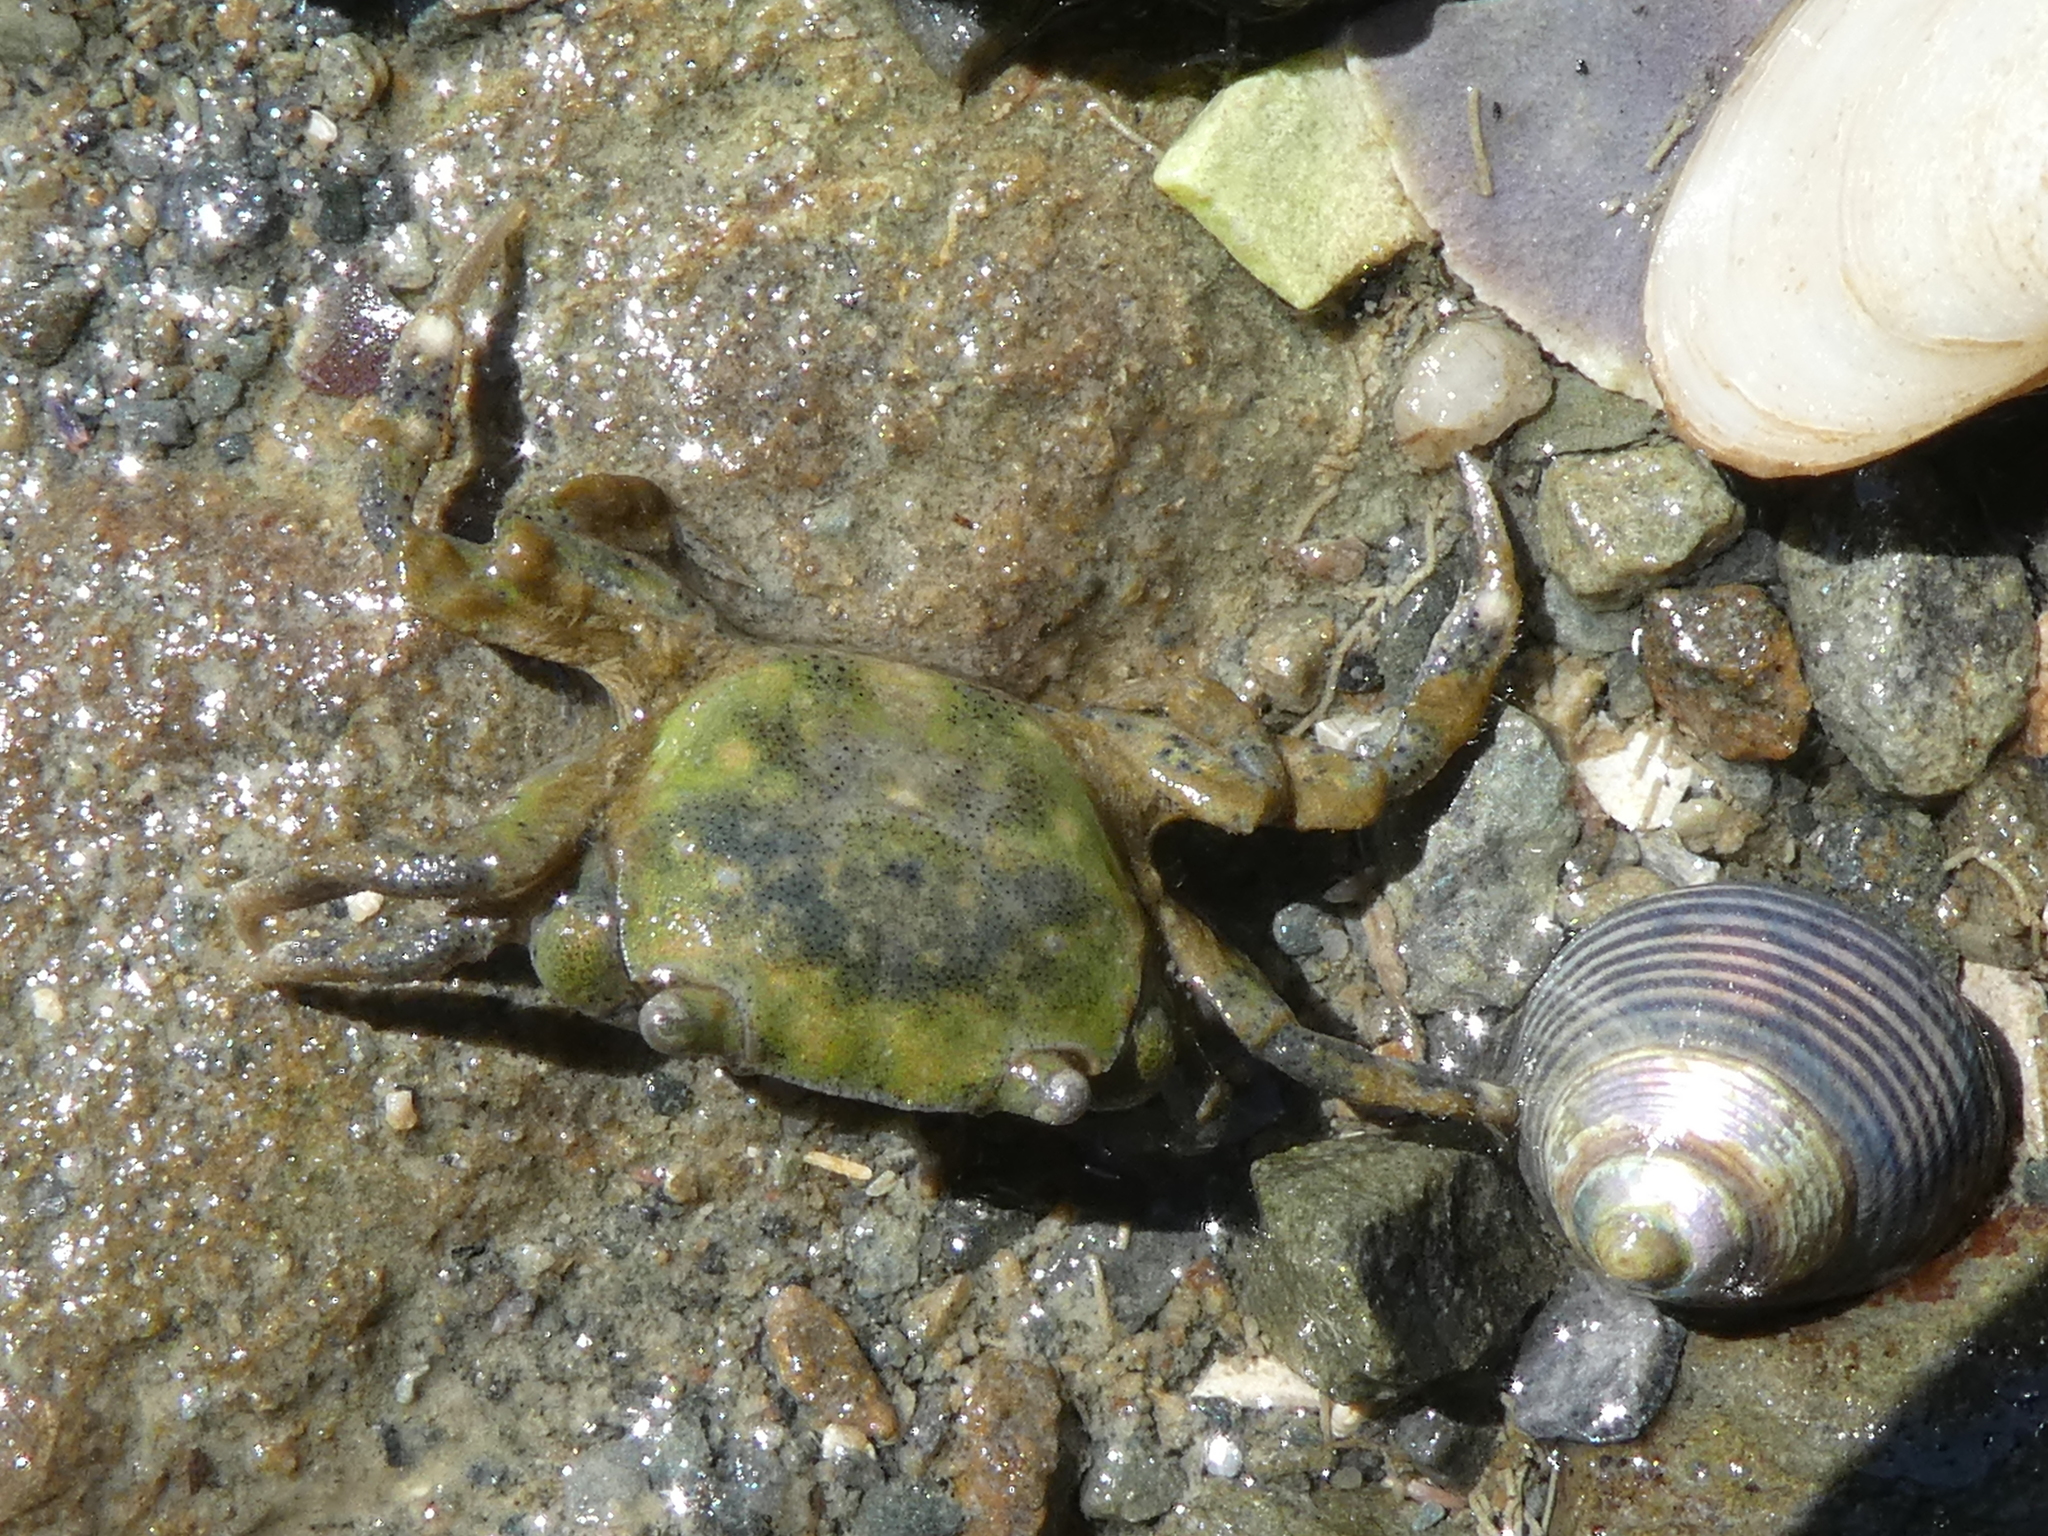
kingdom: Animalia
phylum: Arthropoda
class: Malacostraca
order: Decapoda
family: Varunidae
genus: Hemigrapsus
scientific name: Hemigrapsus crenulatus
